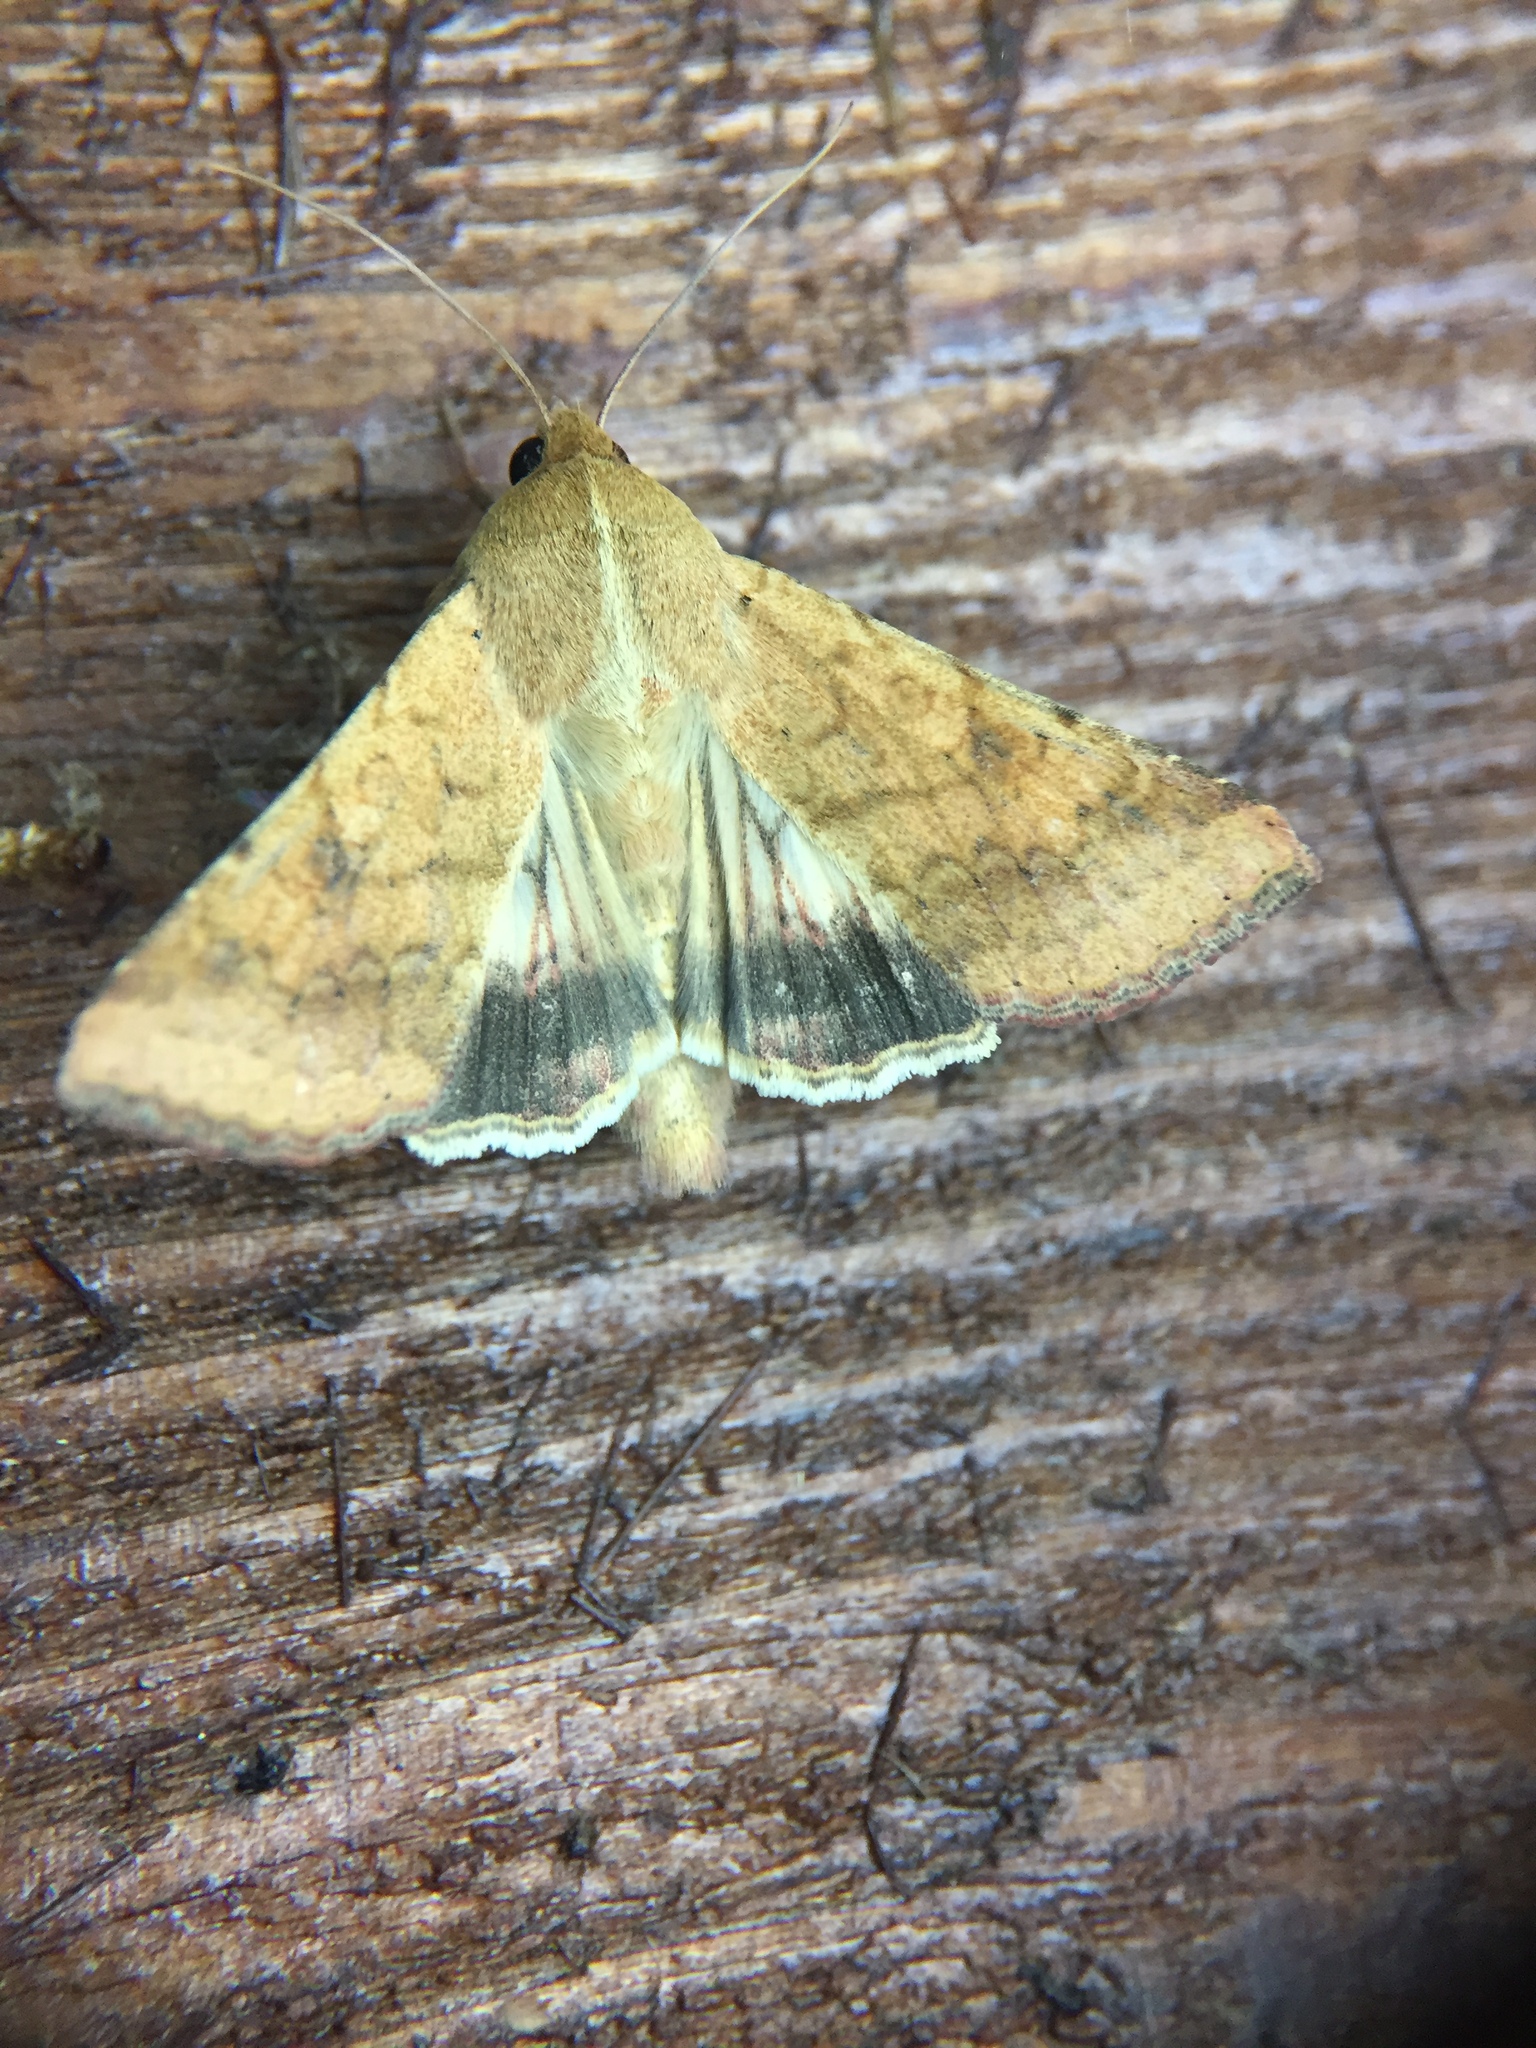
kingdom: Animalia
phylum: Arthropoda
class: Insecta
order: Lepidoptera
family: Noctuidae
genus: Helicoverpa
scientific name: Helicoverpa armigera
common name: Cotton bollworm
